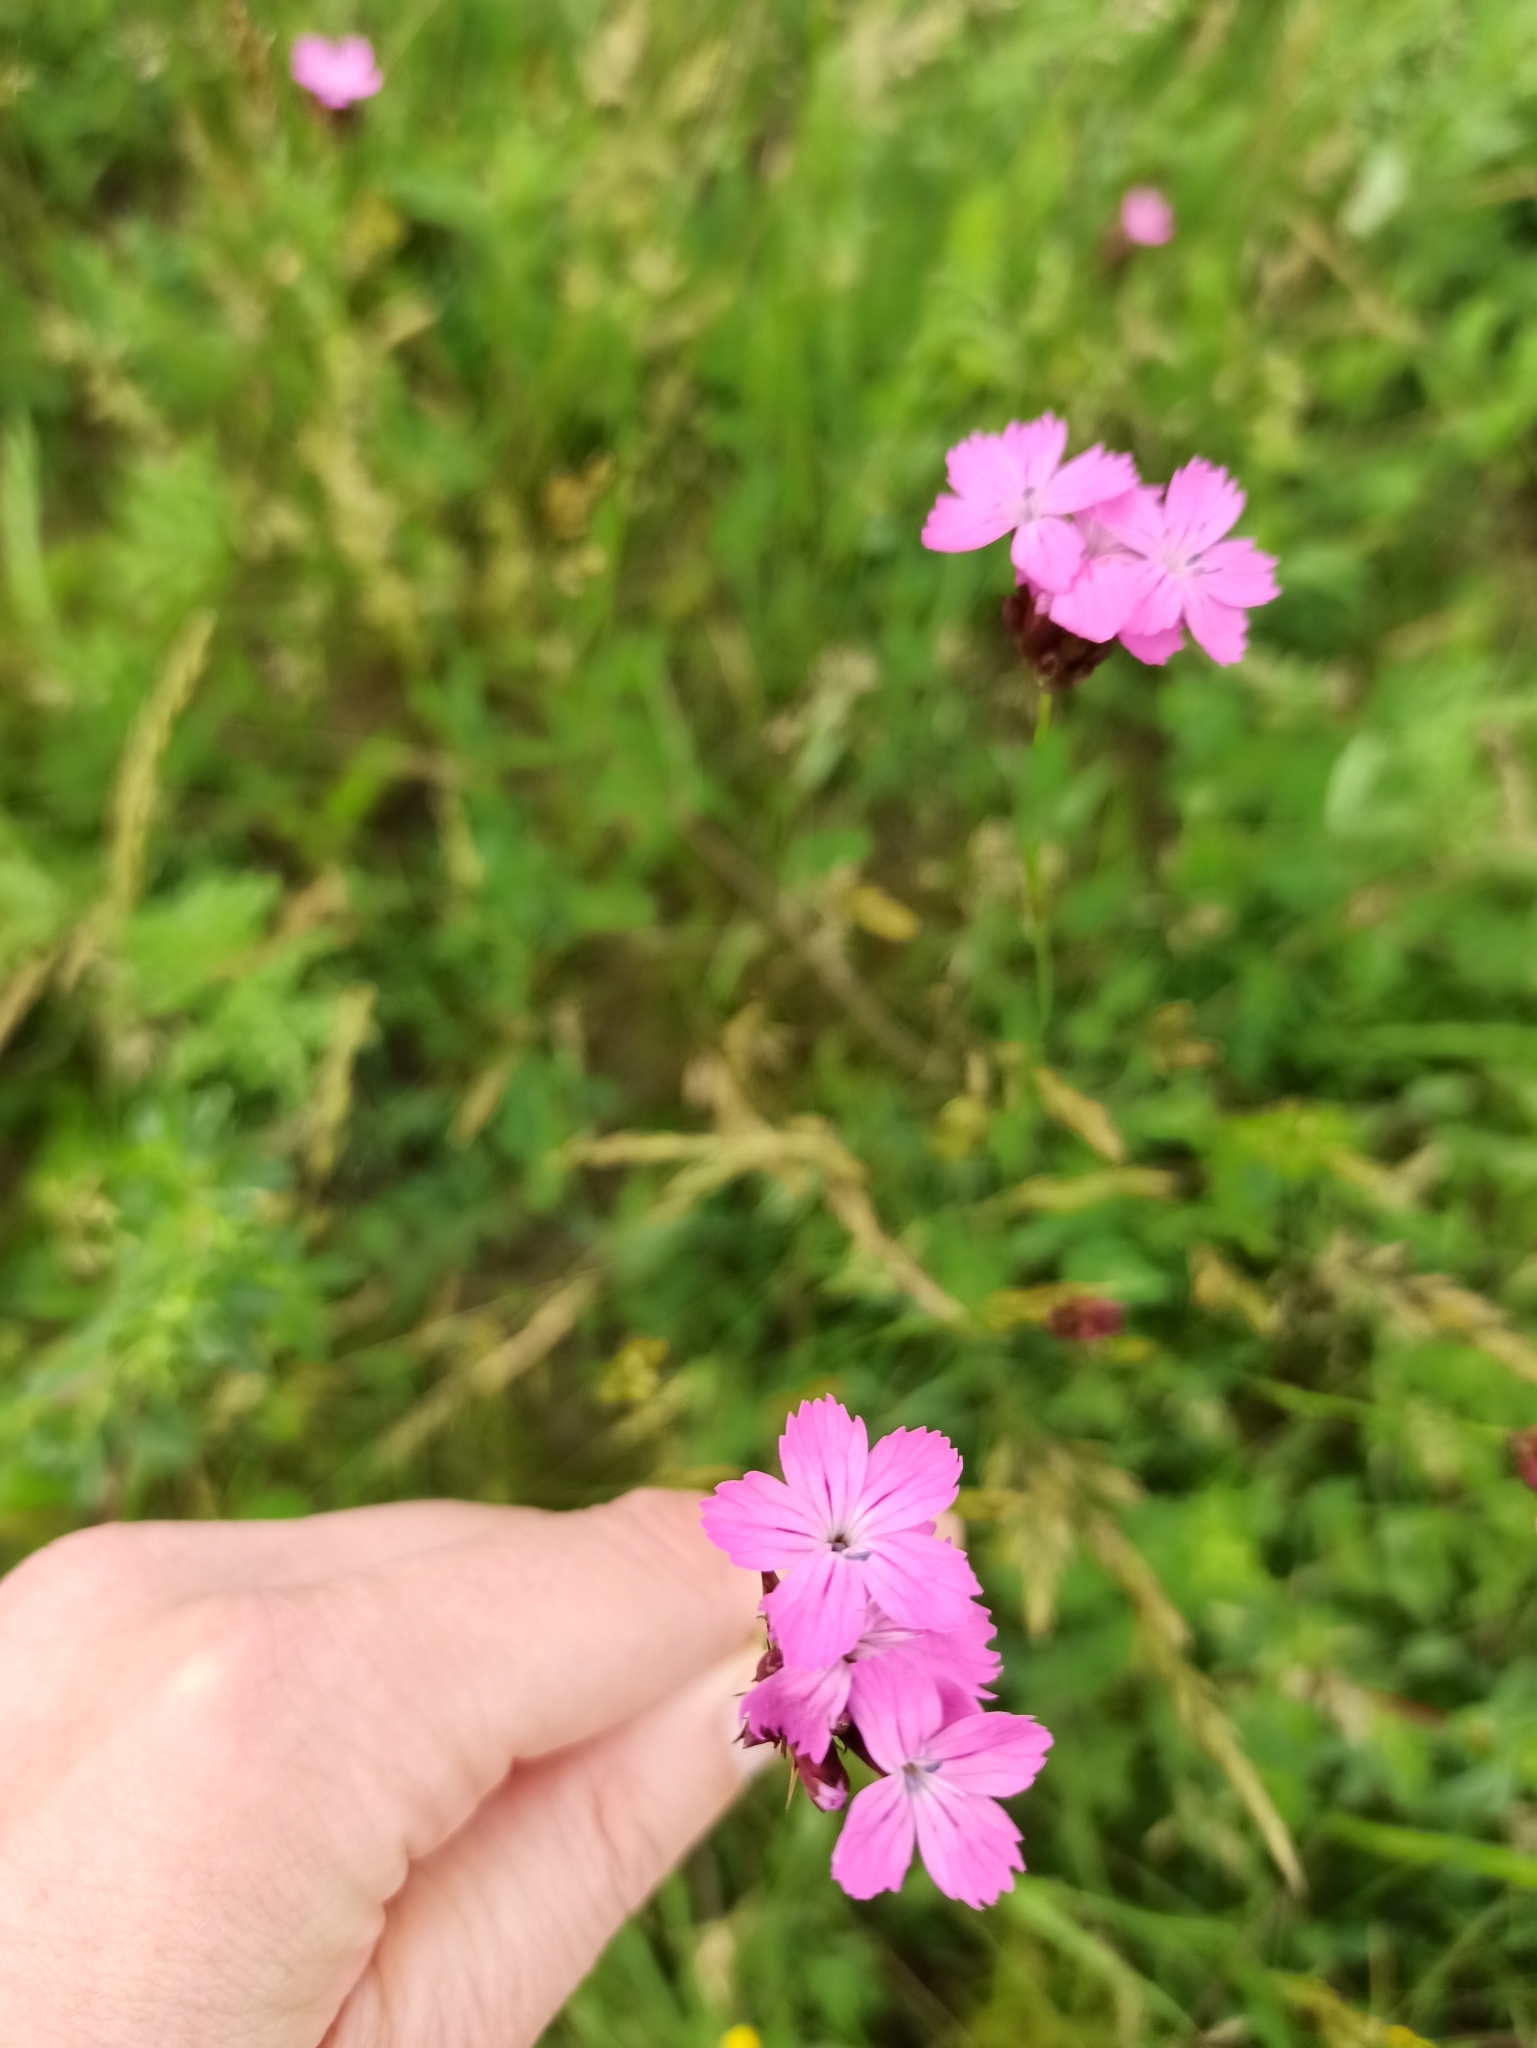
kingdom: Plantae
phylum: Tracheophyta
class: Magnoliopsida
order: Caryophyllales
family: Caryophyllaceae
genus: Dianthus
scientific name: Dianthus carthusianorum
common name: Carthusian pink
